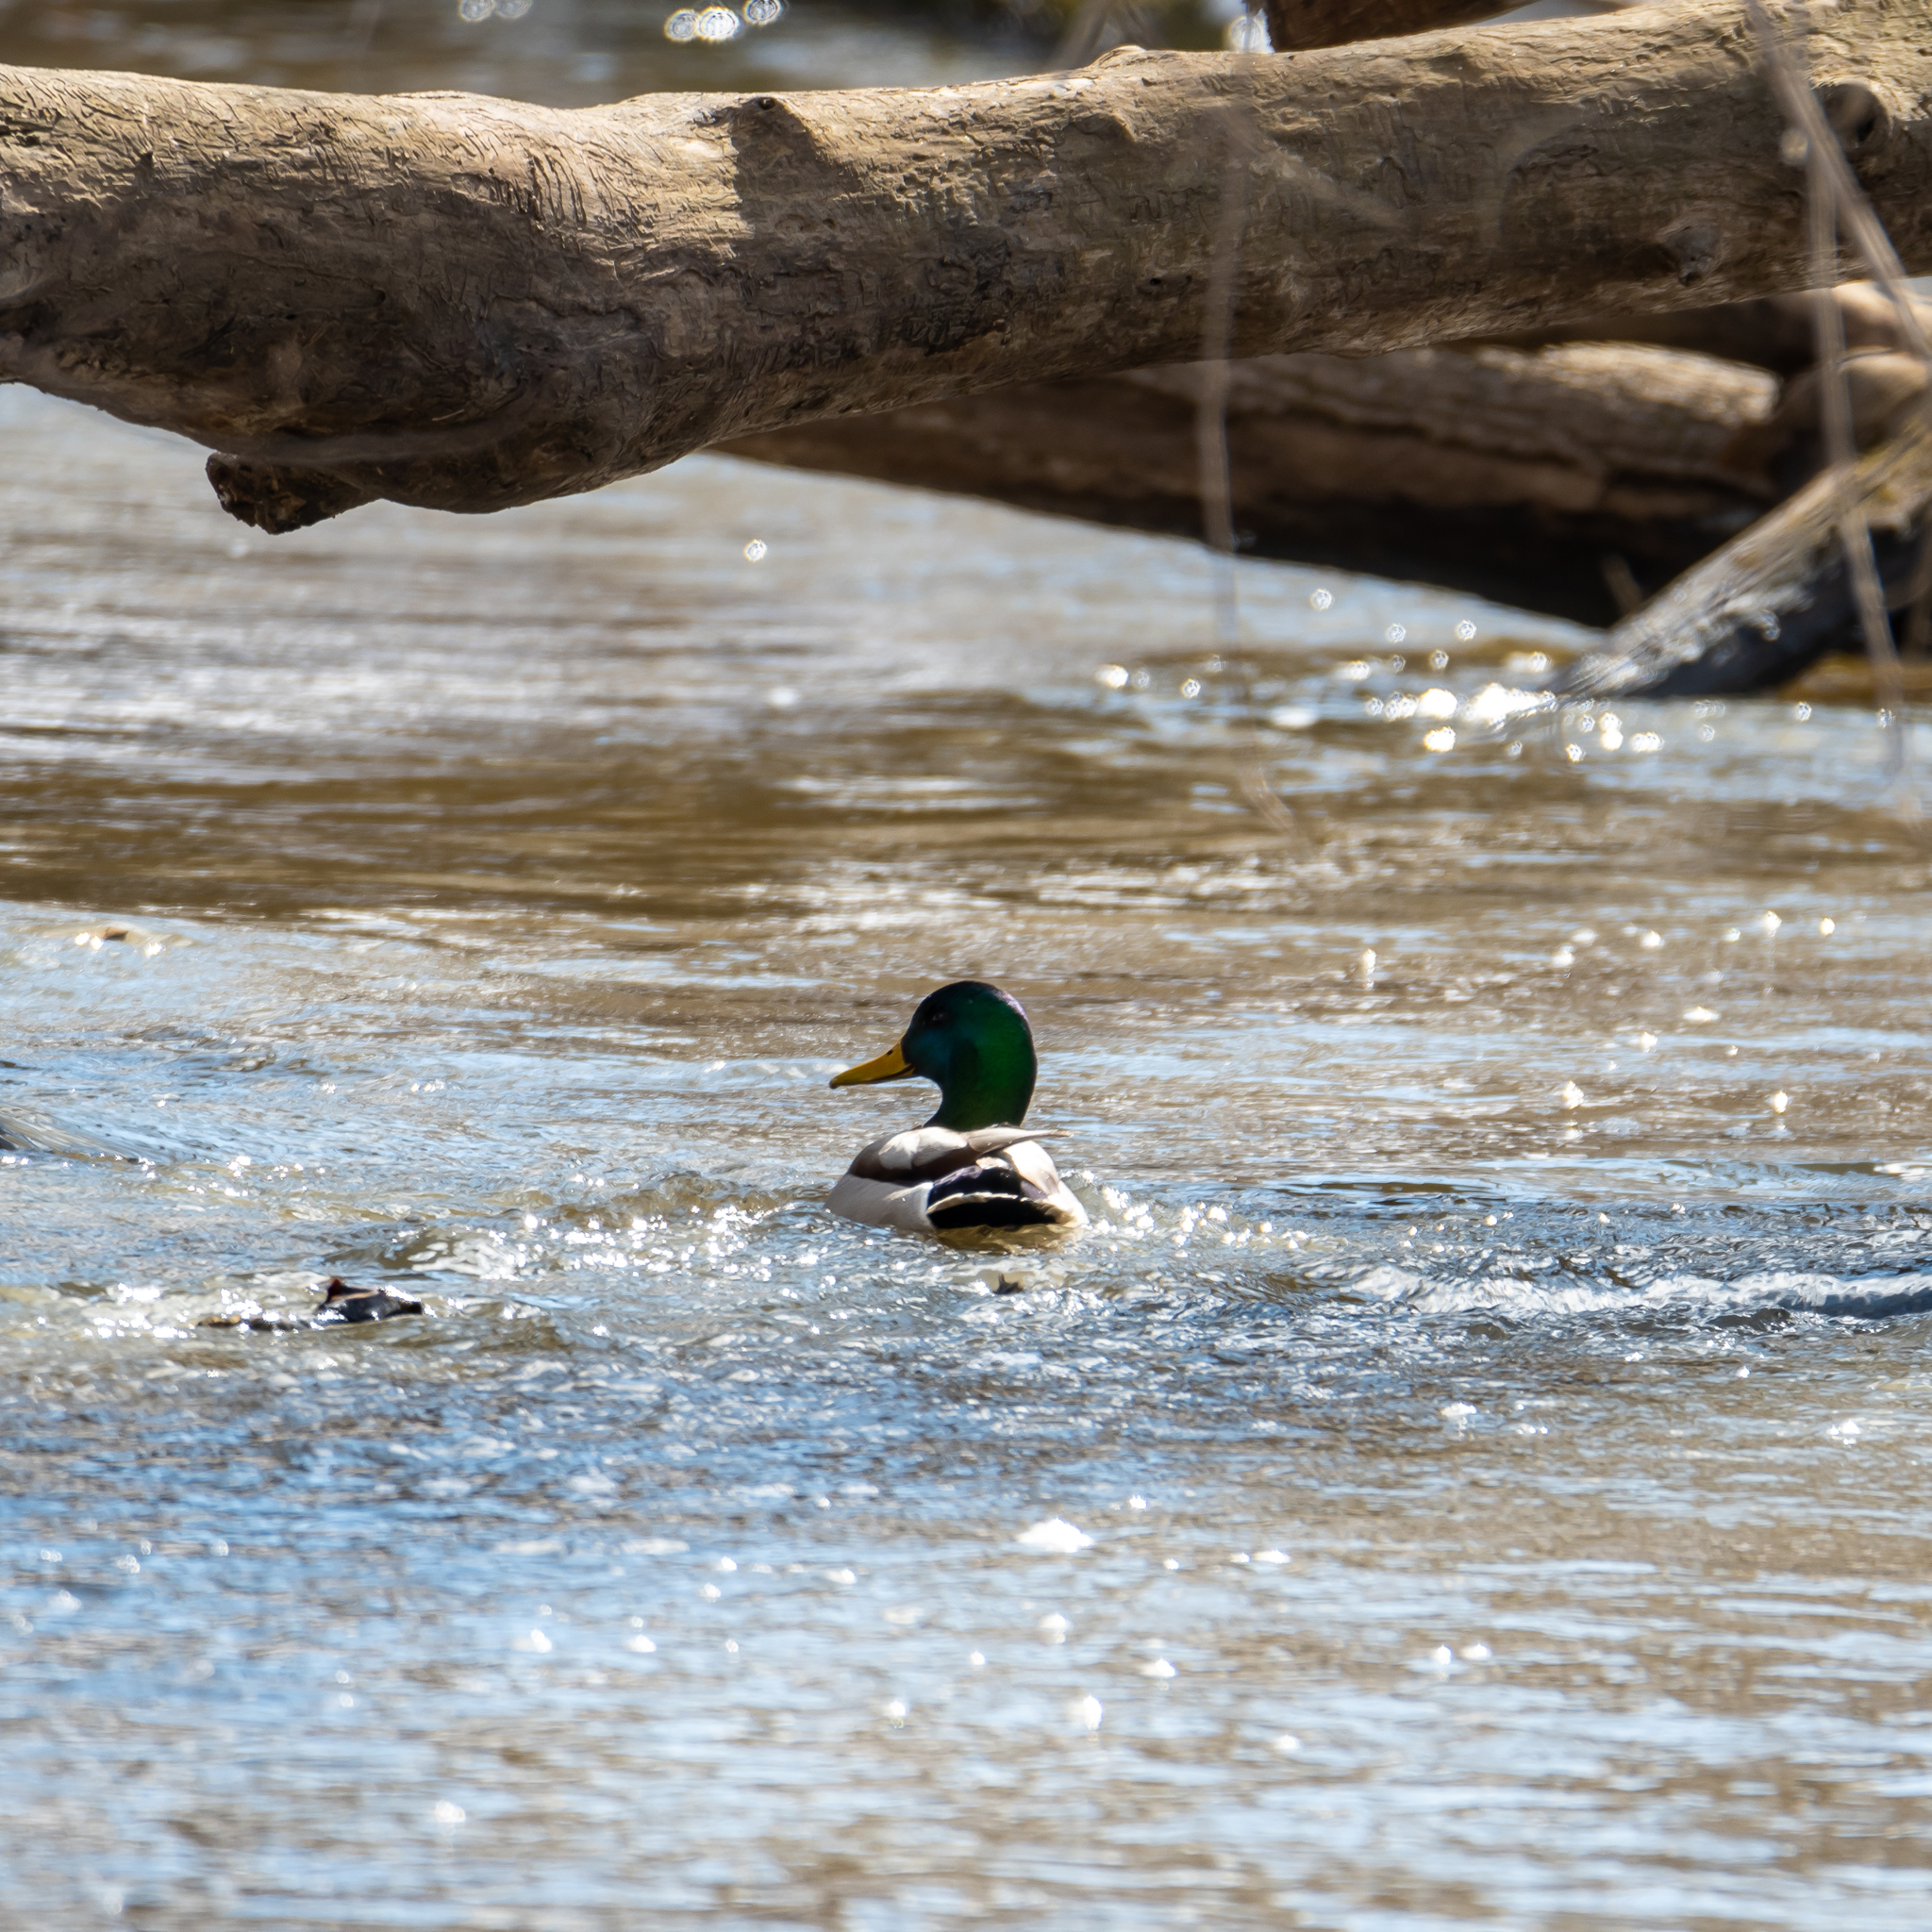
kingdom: Animalia
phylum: Chordata
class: Aves
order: Anseriformes
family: Anatidae
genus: Anas
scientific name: Anas platyrhynchos
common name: Mallard
